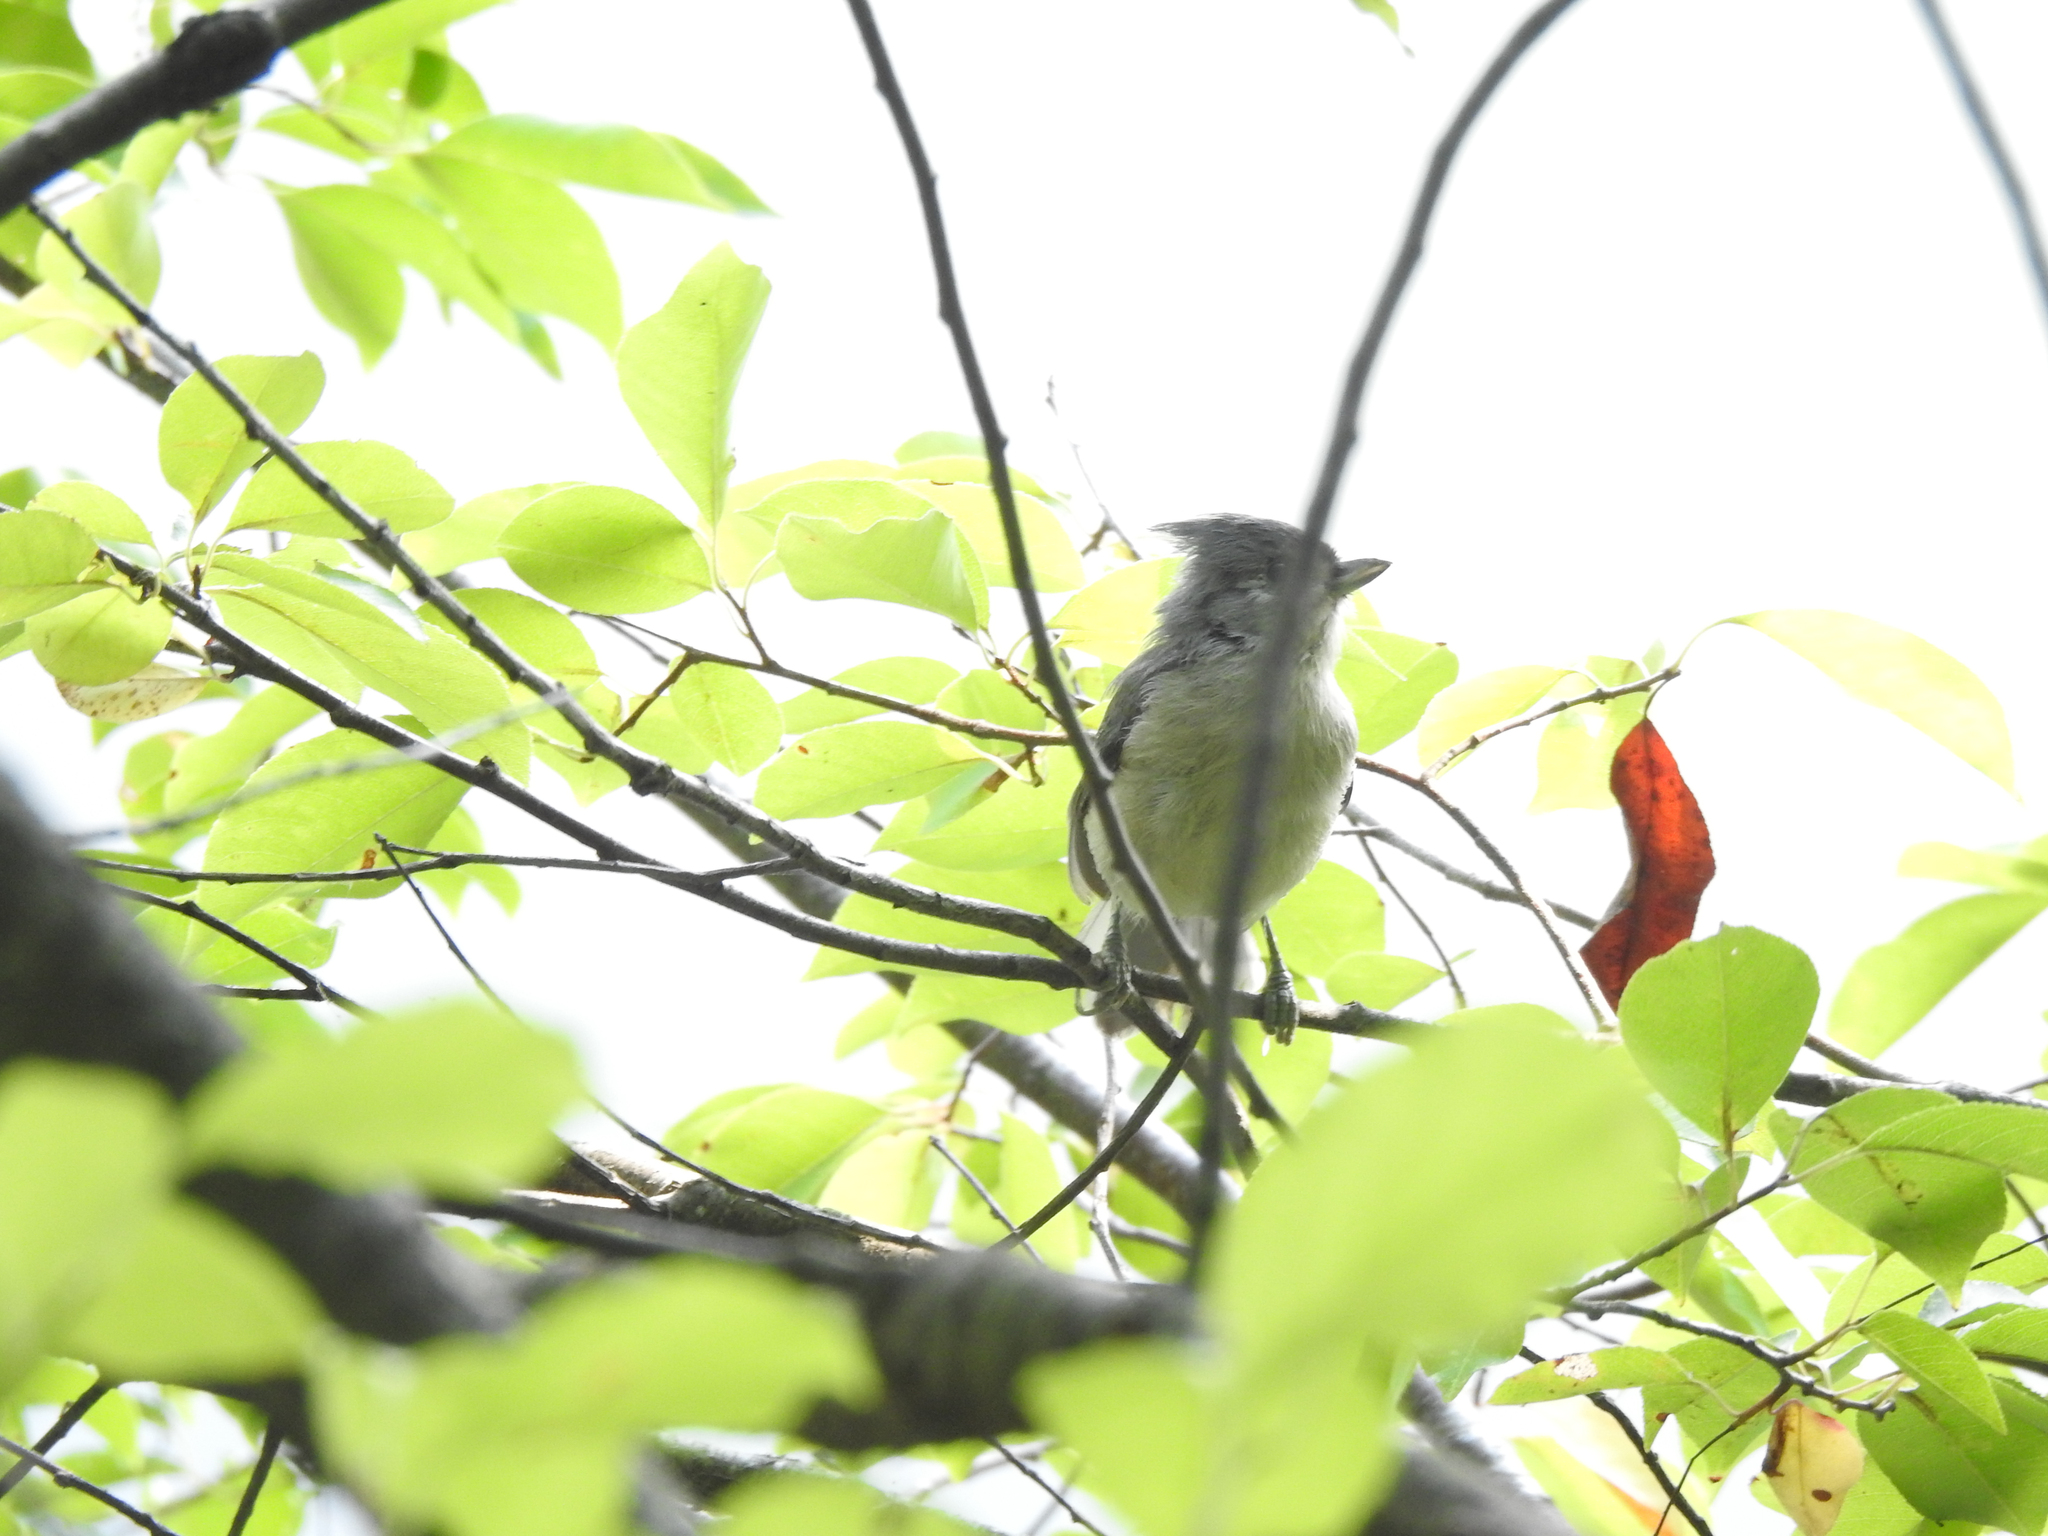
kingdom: Animalia
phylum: Chordata
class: Aves
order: Passeriformes
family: Paridae
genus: Baeolophus
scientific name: Baeolophus bicolor
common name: Tufted titmouse
